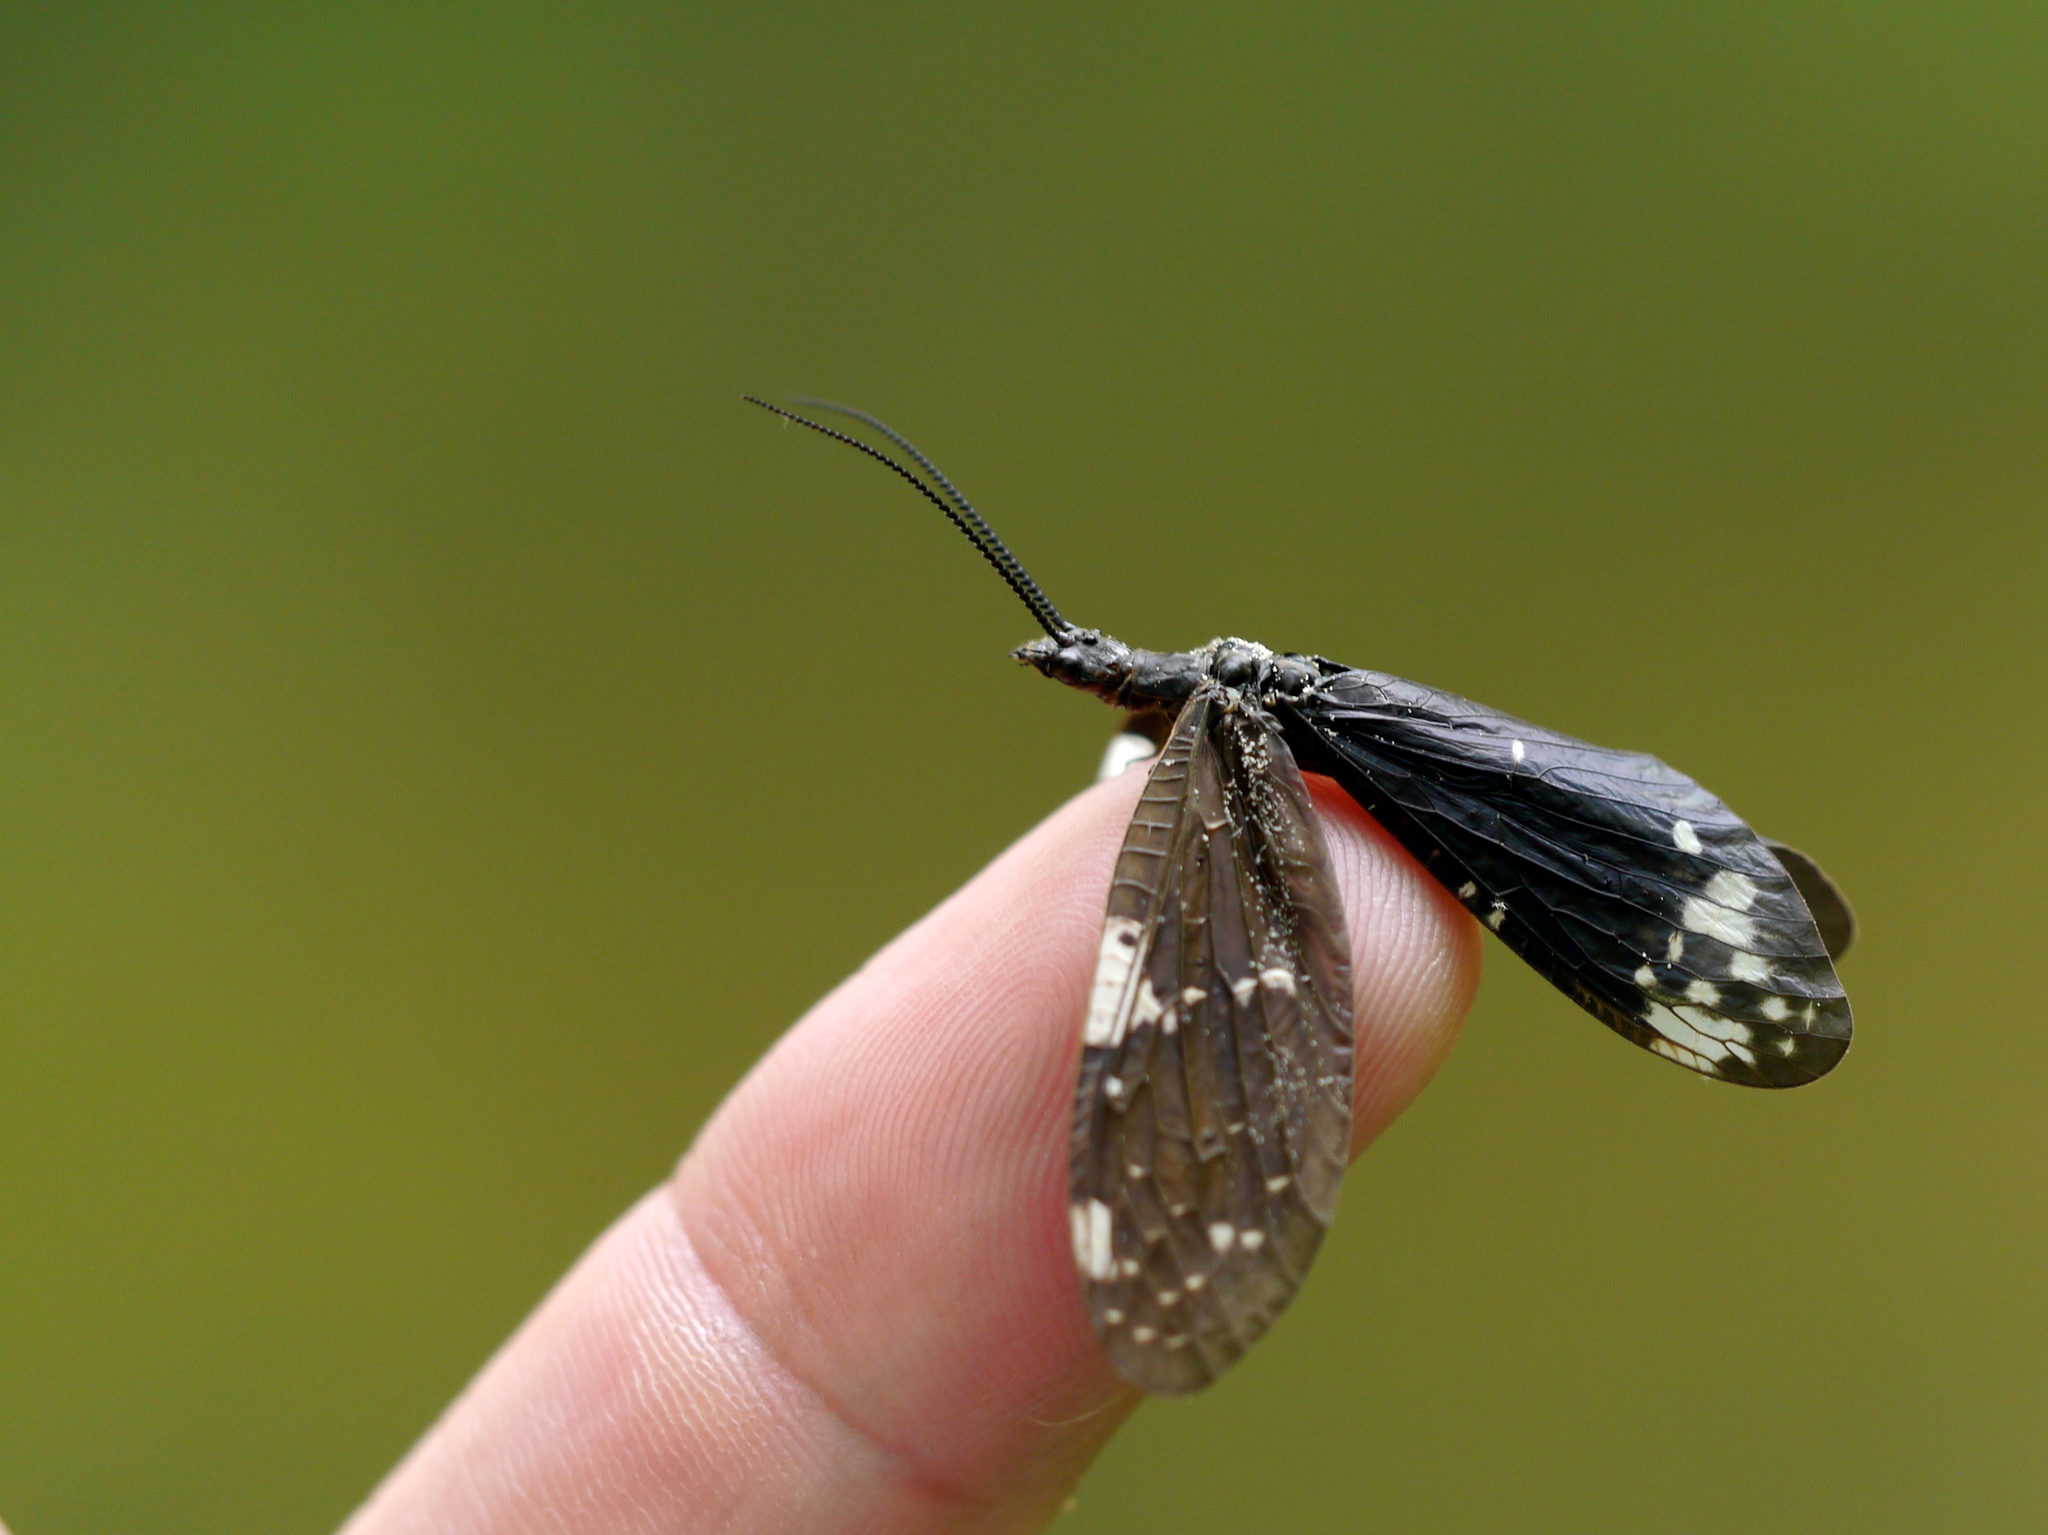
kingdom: Animalia
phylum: Arthropoda
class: Insecta
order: Megaloptera
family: Corydalidae
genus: Nigronia
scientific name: Nigronia serricornis
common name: Serrate dark fishfly
